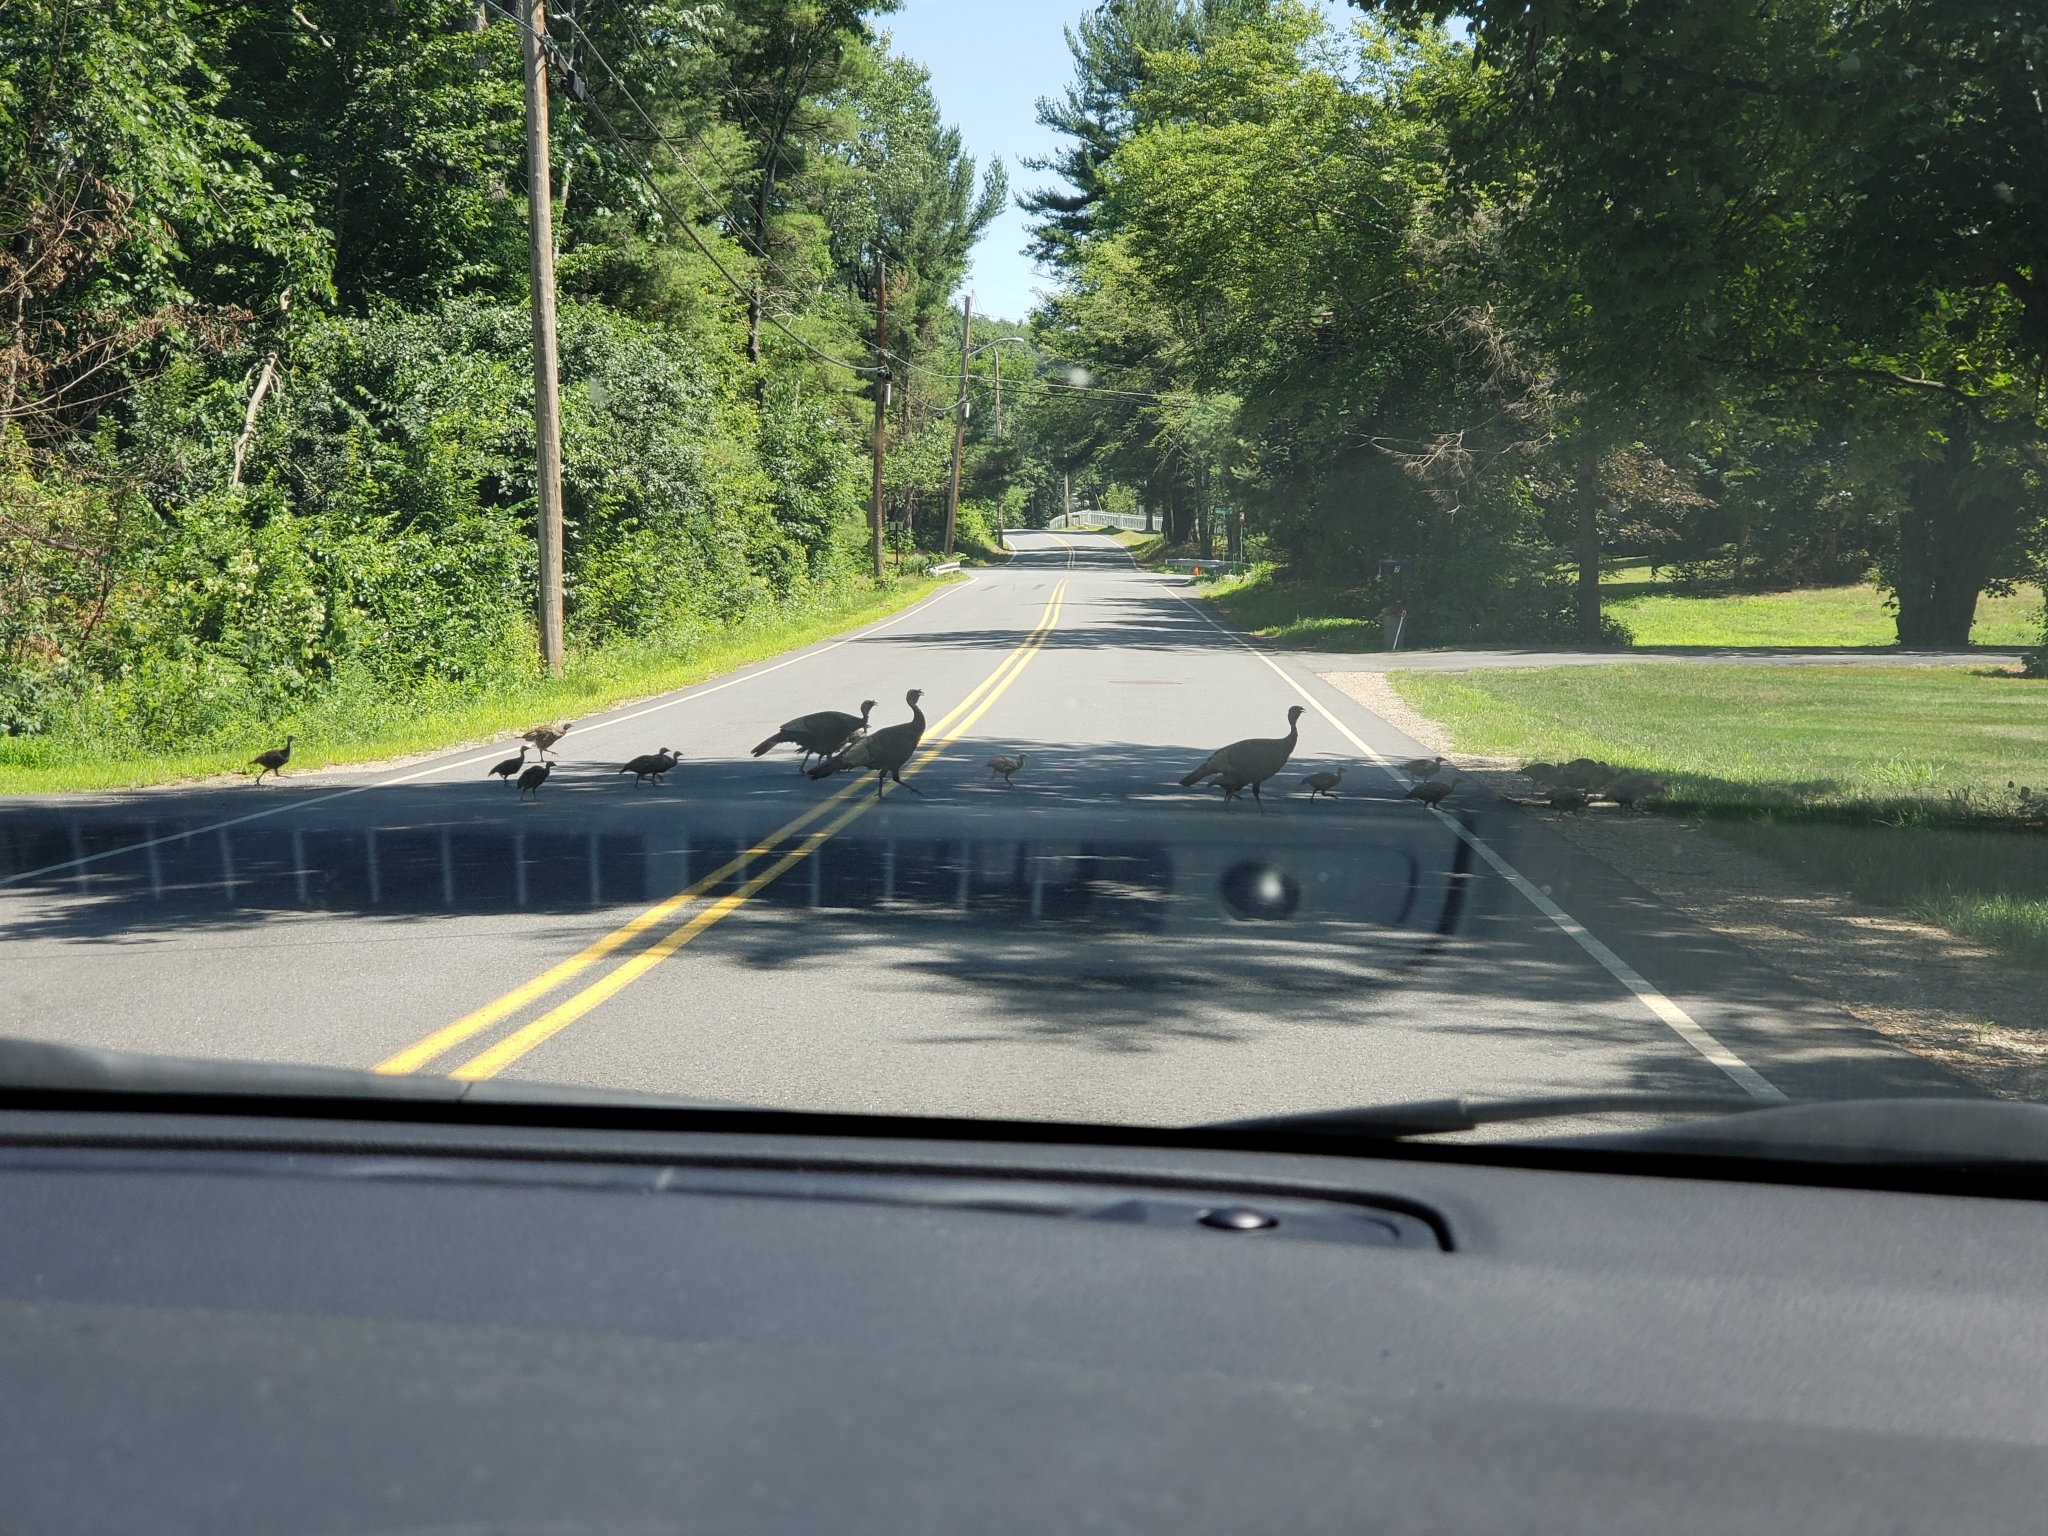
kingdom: Animalia
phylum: Chordata
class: Aves
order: Galliformes
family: Phasianidae
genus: Meleagris
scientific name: Meleagris gallopavo
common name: Wild turkey
